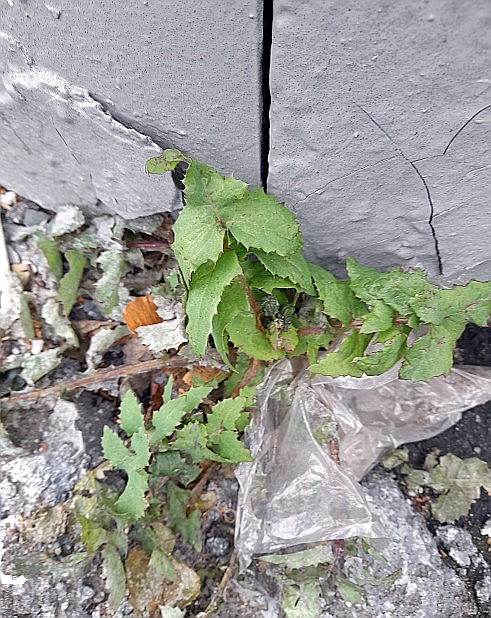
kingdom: Plantae
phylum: Tracheophyta
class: Magnoliopsida
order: Asterales
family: Asteraceae
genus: Sonchus
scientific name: Sonchus oleraceus
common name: Common sowthistle
